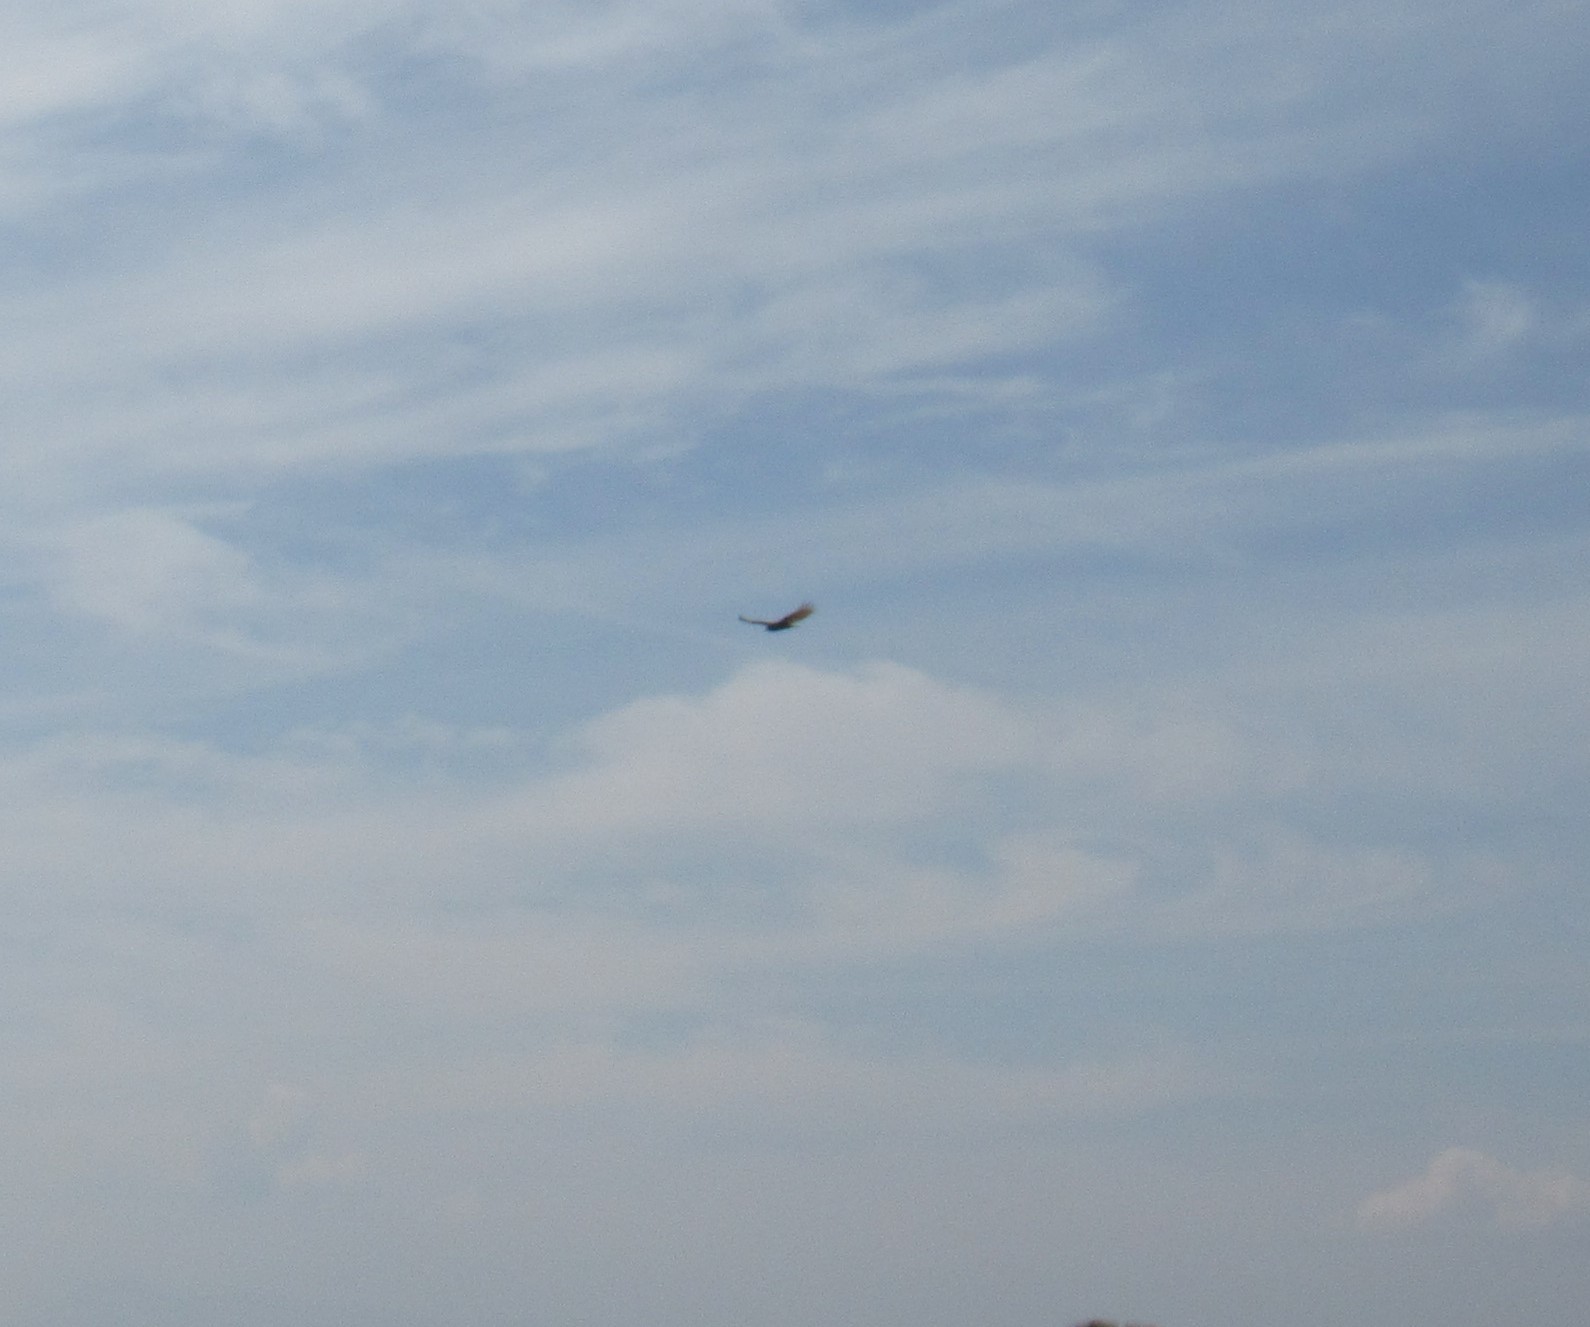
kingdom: Animalia
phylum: Chordata
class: Aves
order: Accipitriformes
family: Cathartidae
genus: Cathartes
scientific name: Cathartes aura
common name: Turkey vulture
